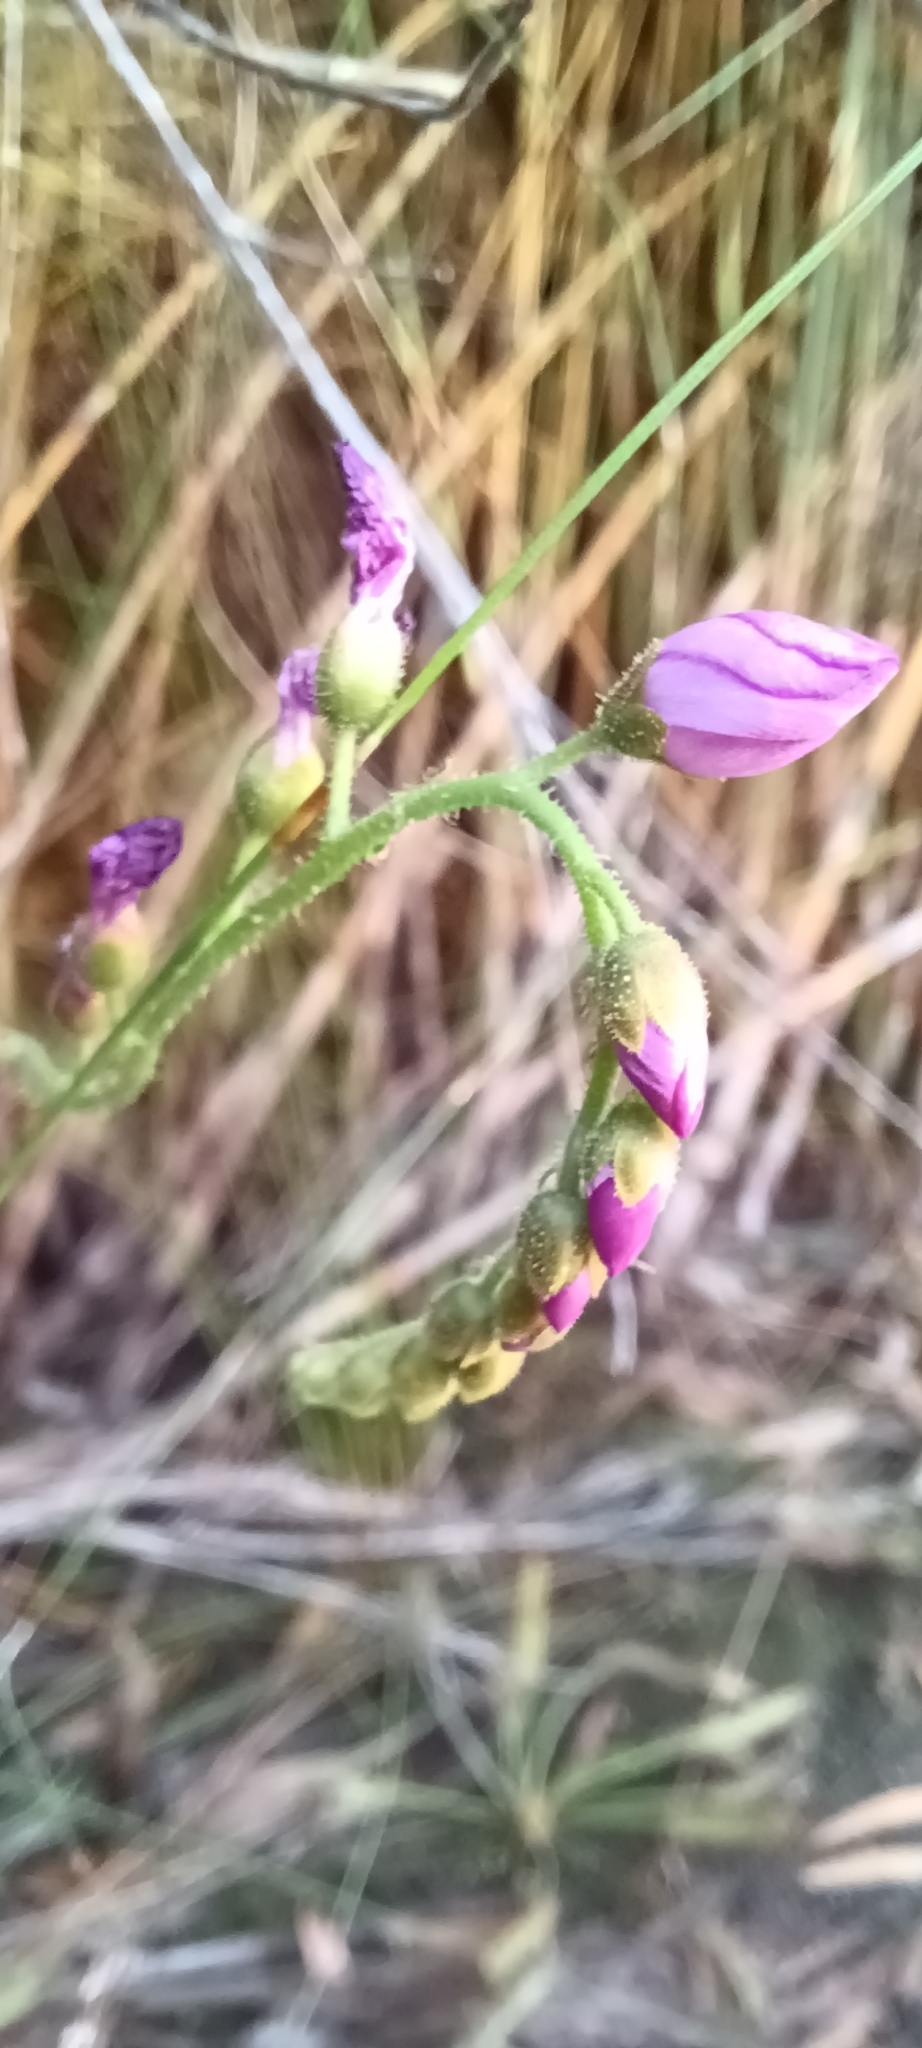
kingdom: Plantae
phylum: Tracheophyta
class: Magnoliopsida
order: Caryophyllales
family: Droseraceae
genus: Drosera
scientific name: Drosera capensis
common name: Cape sundew
